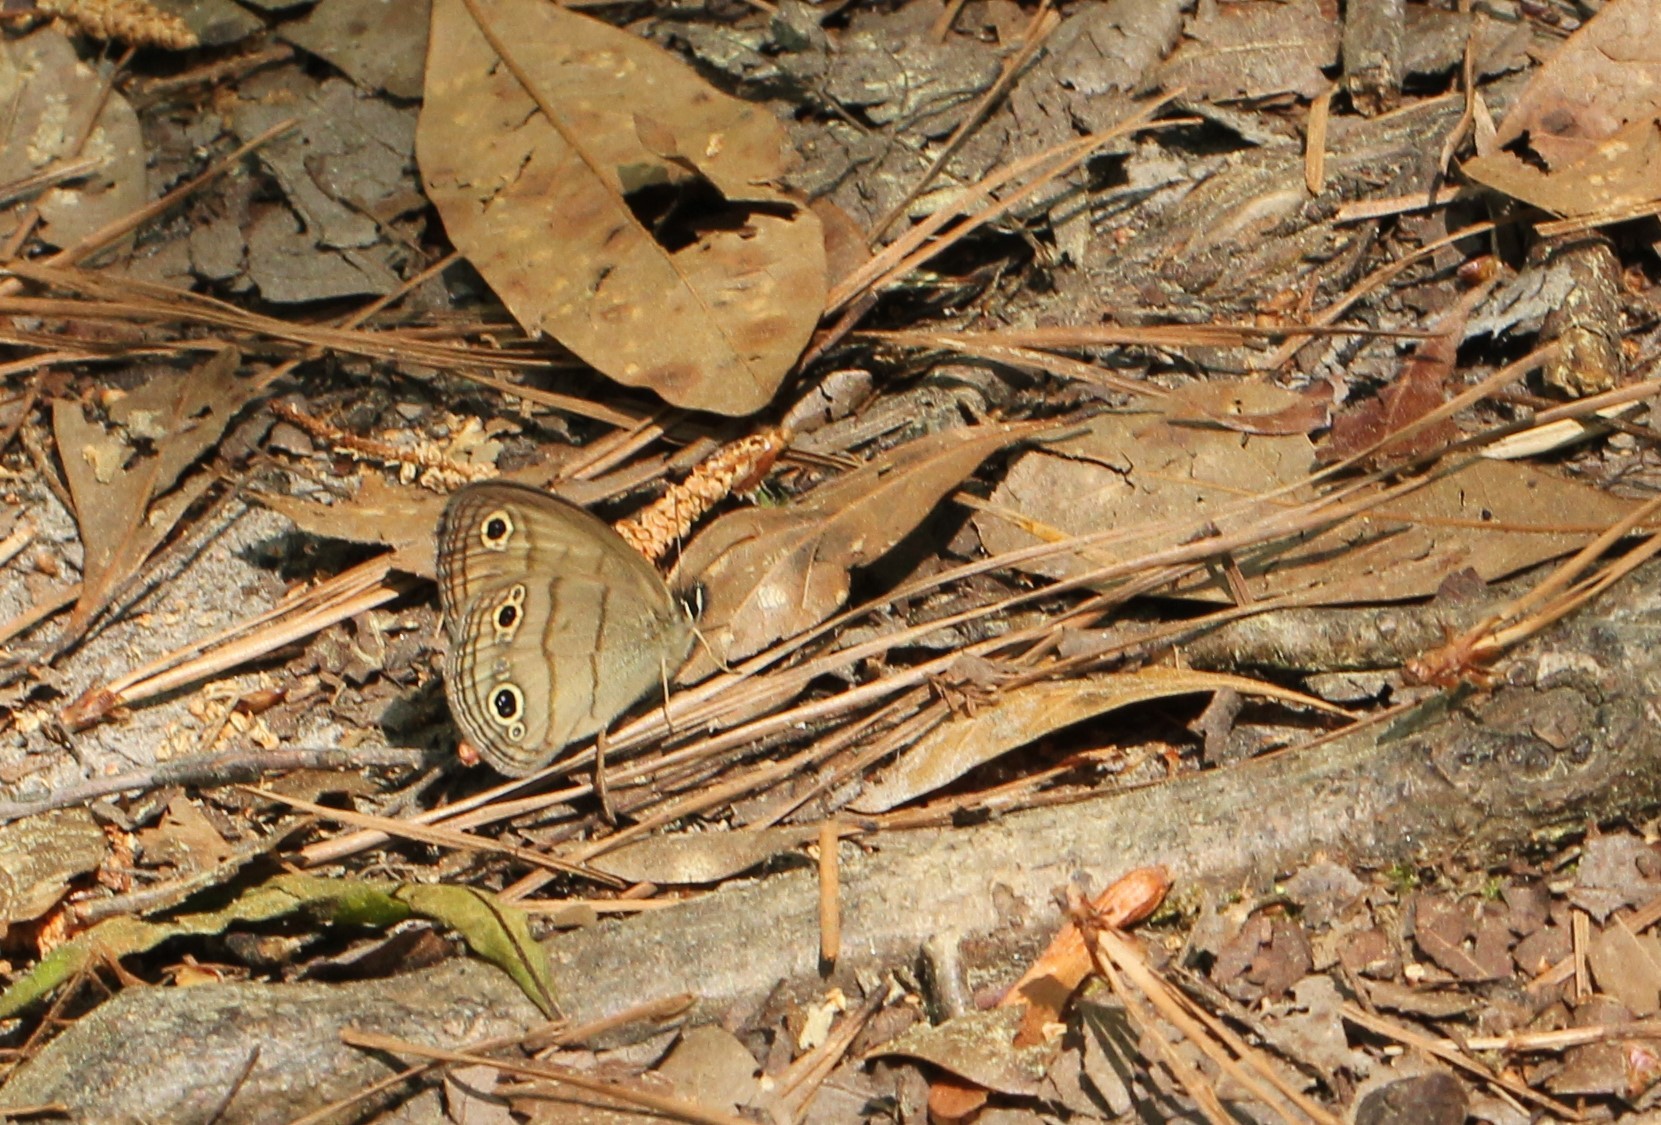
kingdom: Animalia
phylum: Arthropoda
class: Insecta
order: Lepidoptera
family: Nymphalidae
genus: Euptychia
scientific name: Euptychia cymela
